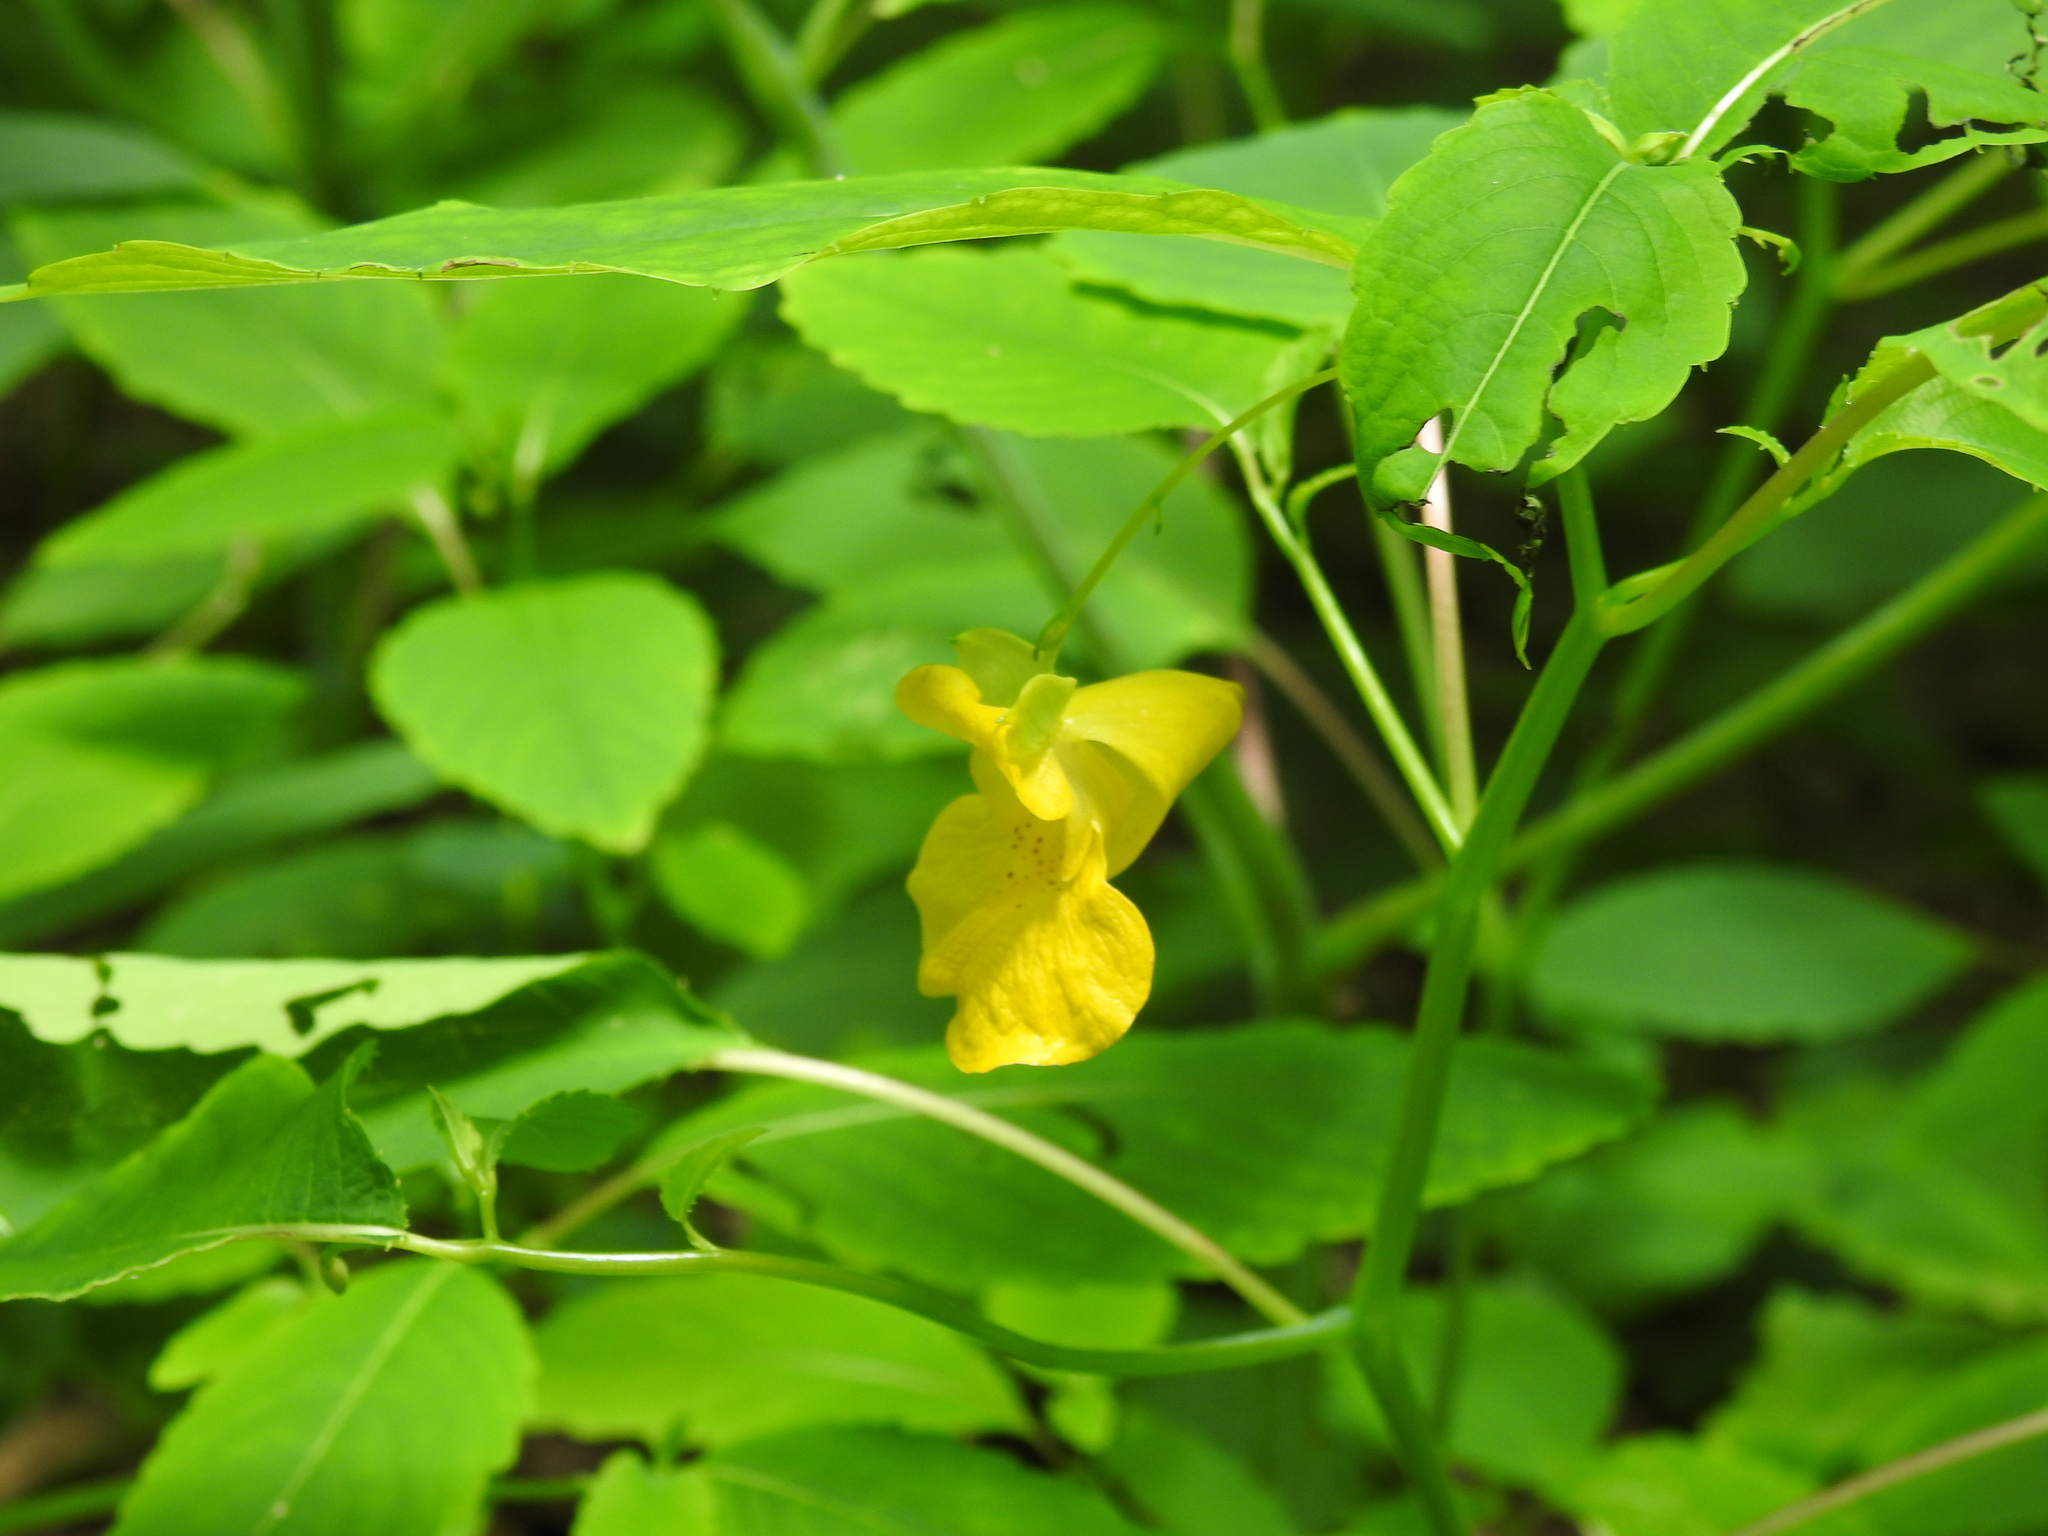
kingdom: Plantae
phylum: Tracheophyta
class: Magnoliopsida
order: Ericales
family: Balsaminaceae
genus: Impatiens
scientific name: Impatiens pallida
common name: Pale snapweed
